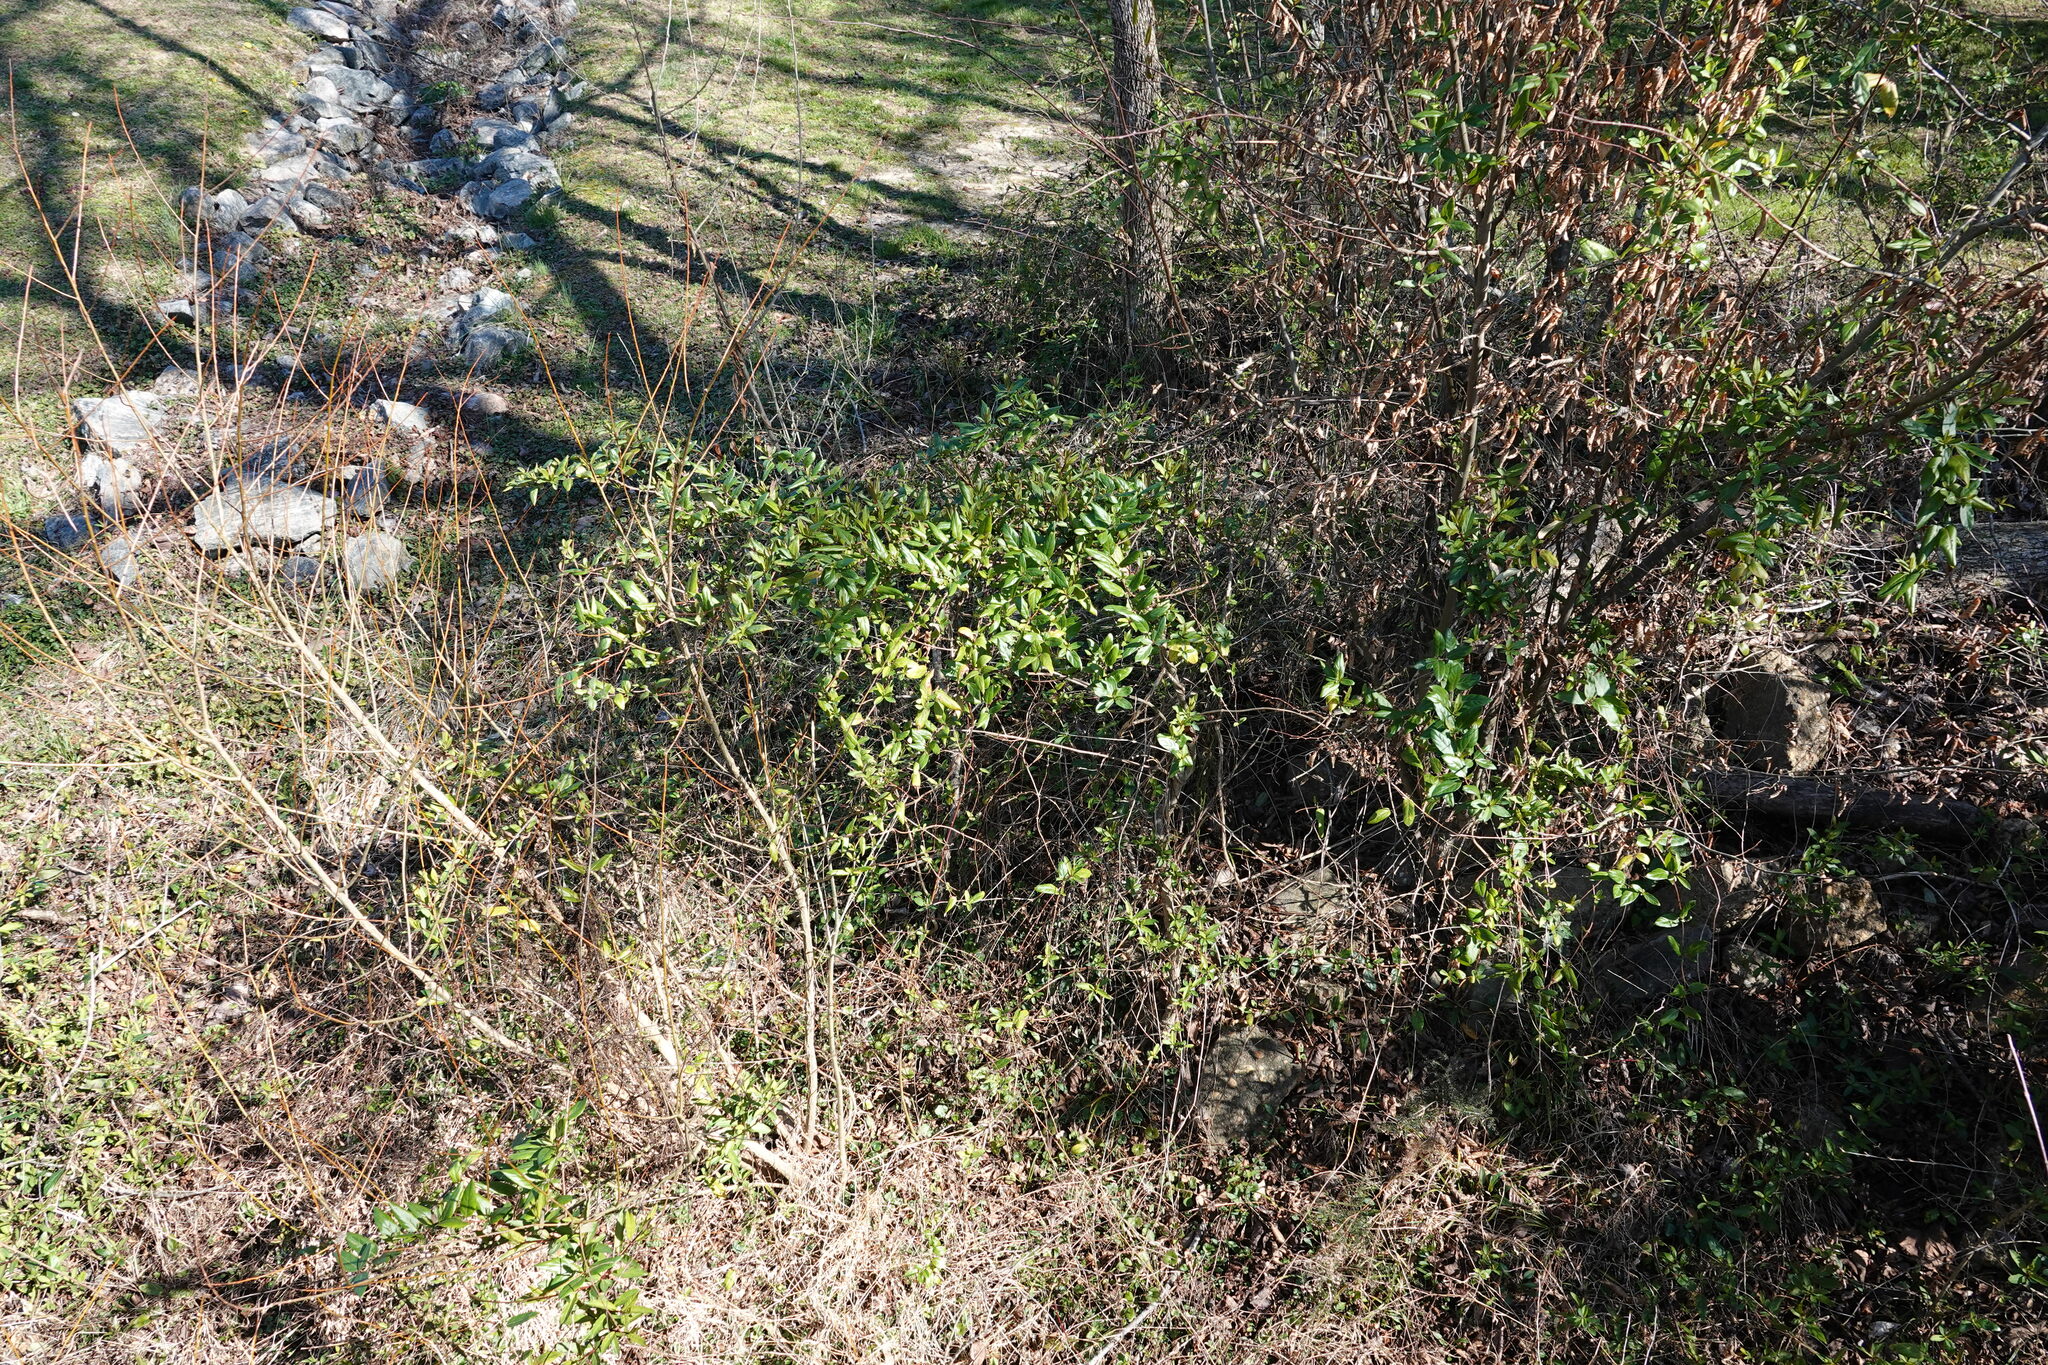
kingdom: Plantae
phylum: Tracheophyta
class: Magnoliopsida
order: Dipsacales
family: Caprifoliaceae
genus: Lonicera
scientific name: Lonicera japonica
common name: Japanese honeysuckle
